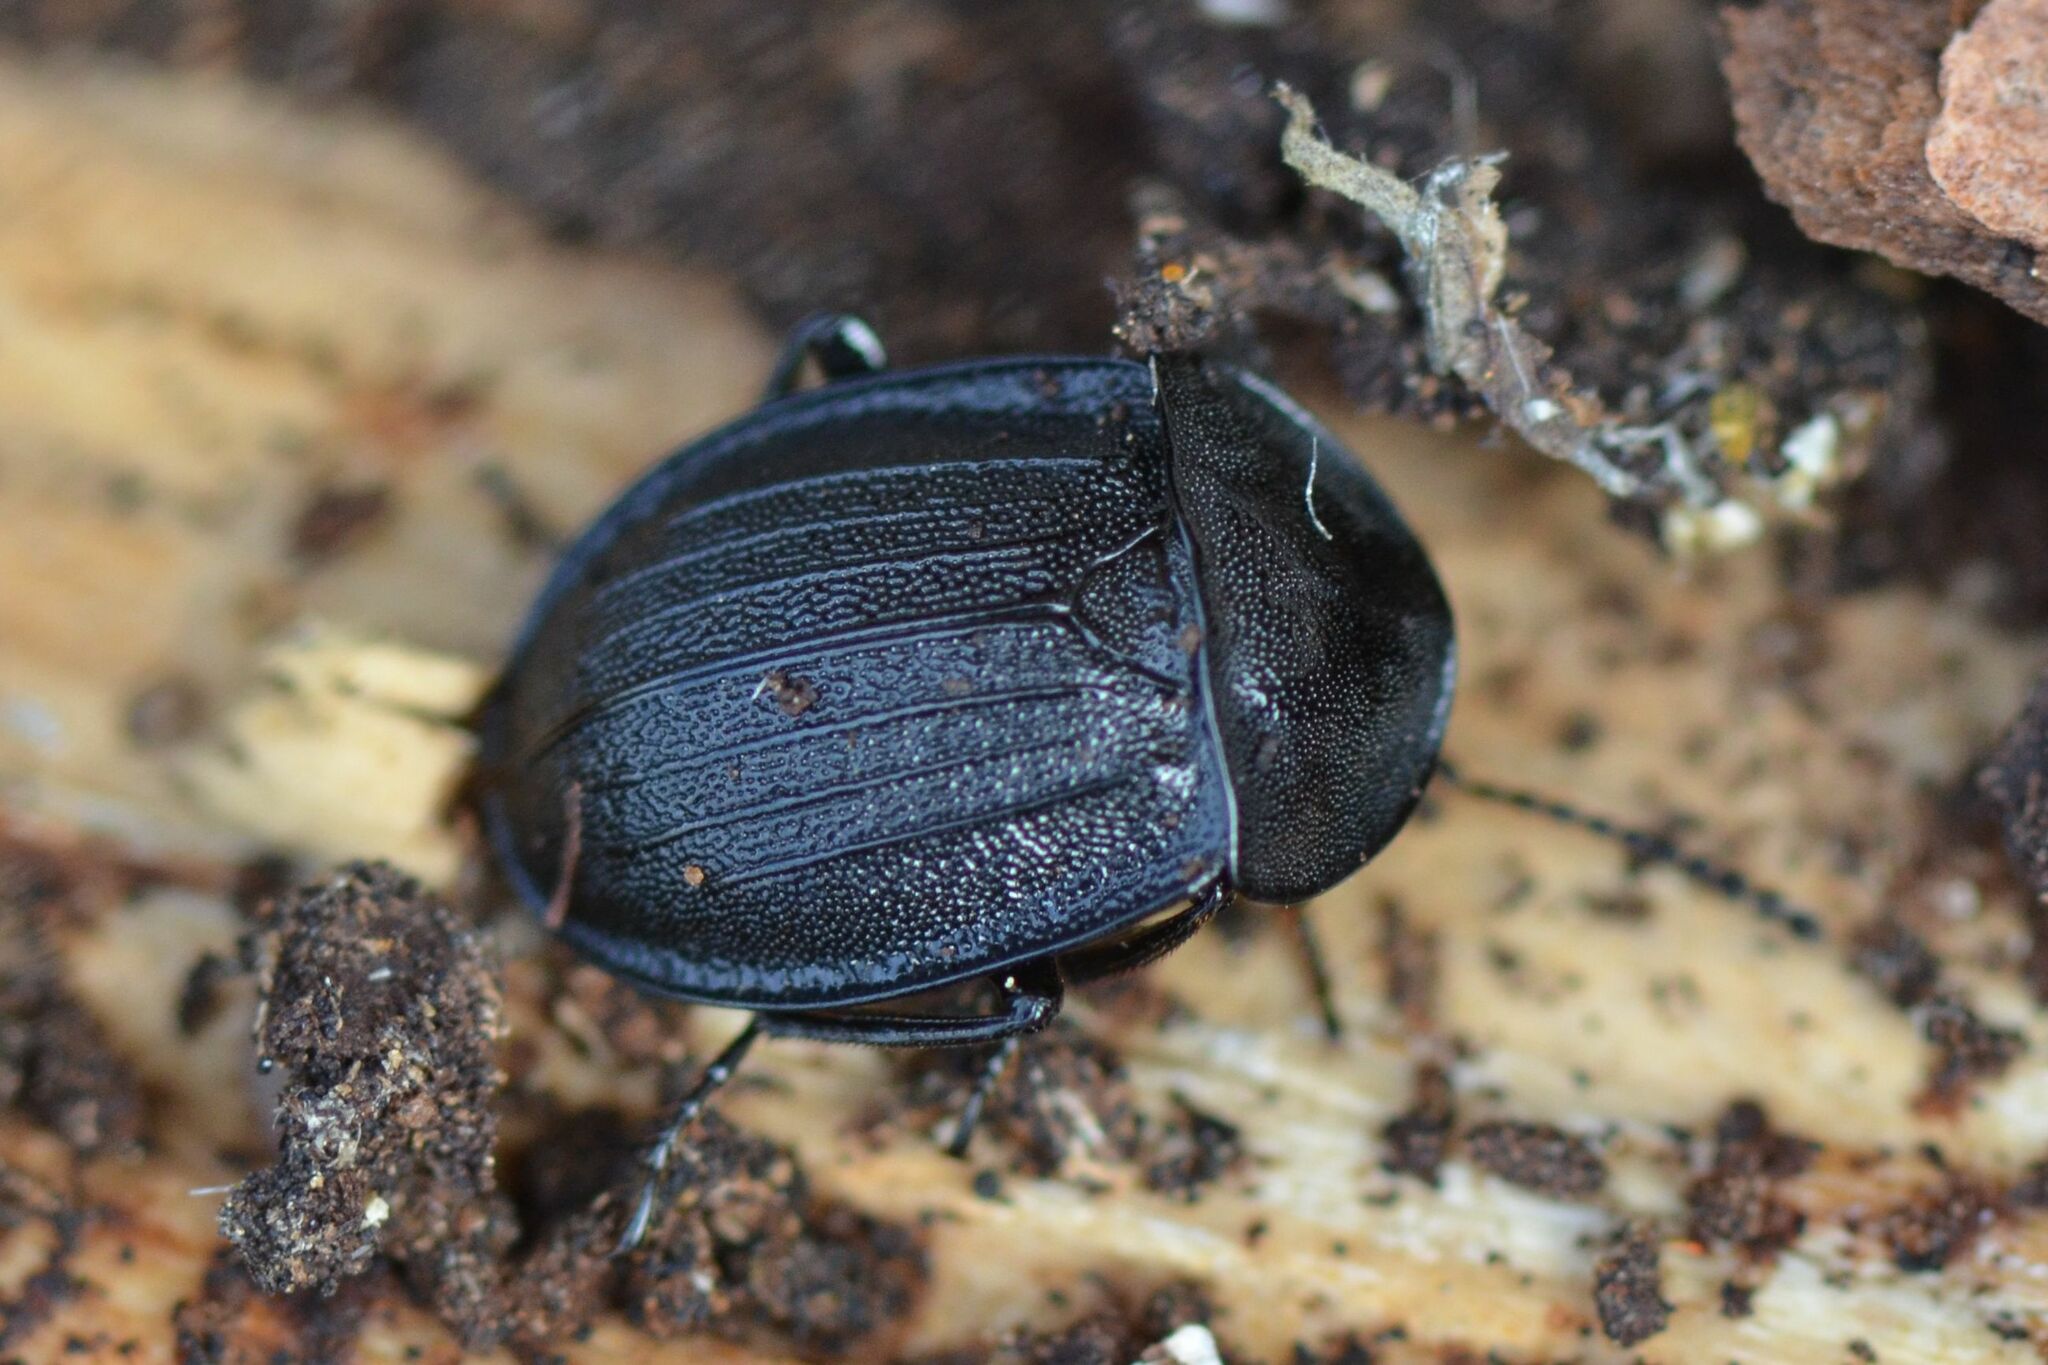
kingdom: Animalia
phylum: Arthropoda
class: Insecta
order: Coleoptera
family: Staphylinidae
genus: Silpha
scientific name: Silpha atrata
